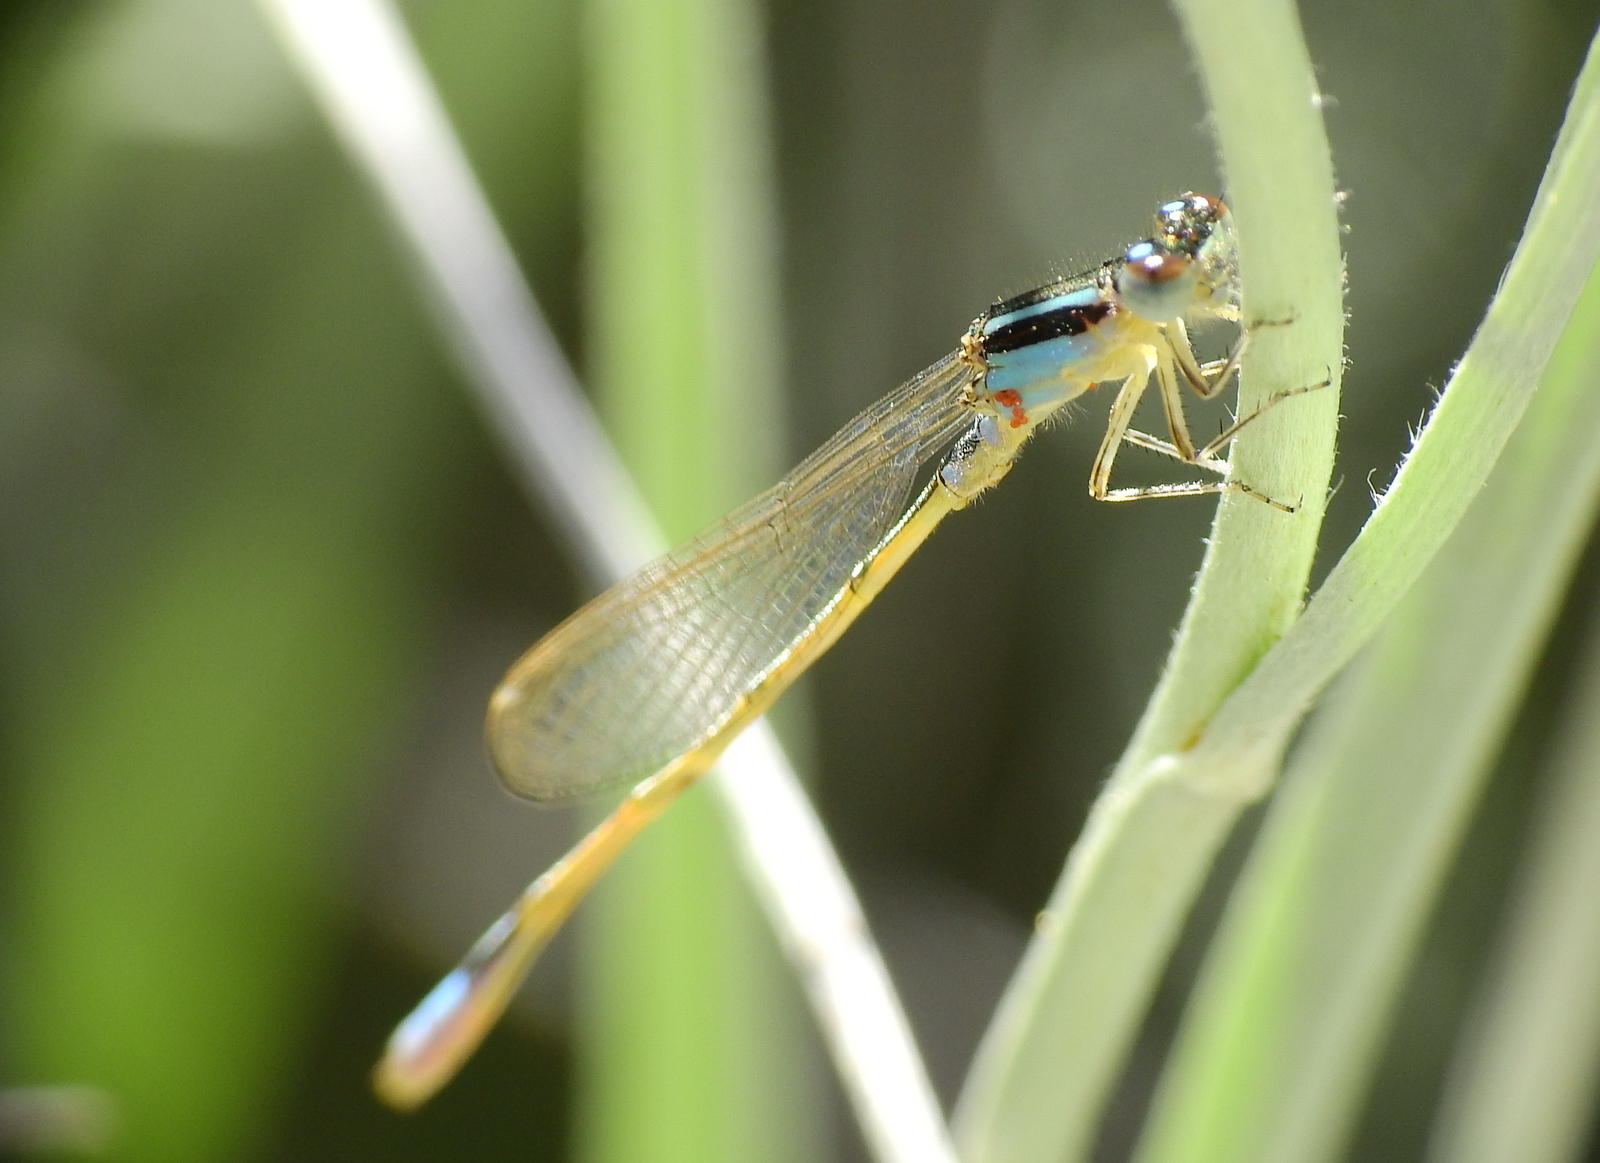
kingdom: Animalia
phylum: Arthropoda
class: Insecta
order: Odonata
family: Coenagrionidae
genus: Ischnura
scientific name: Ischnura fluviatilis
